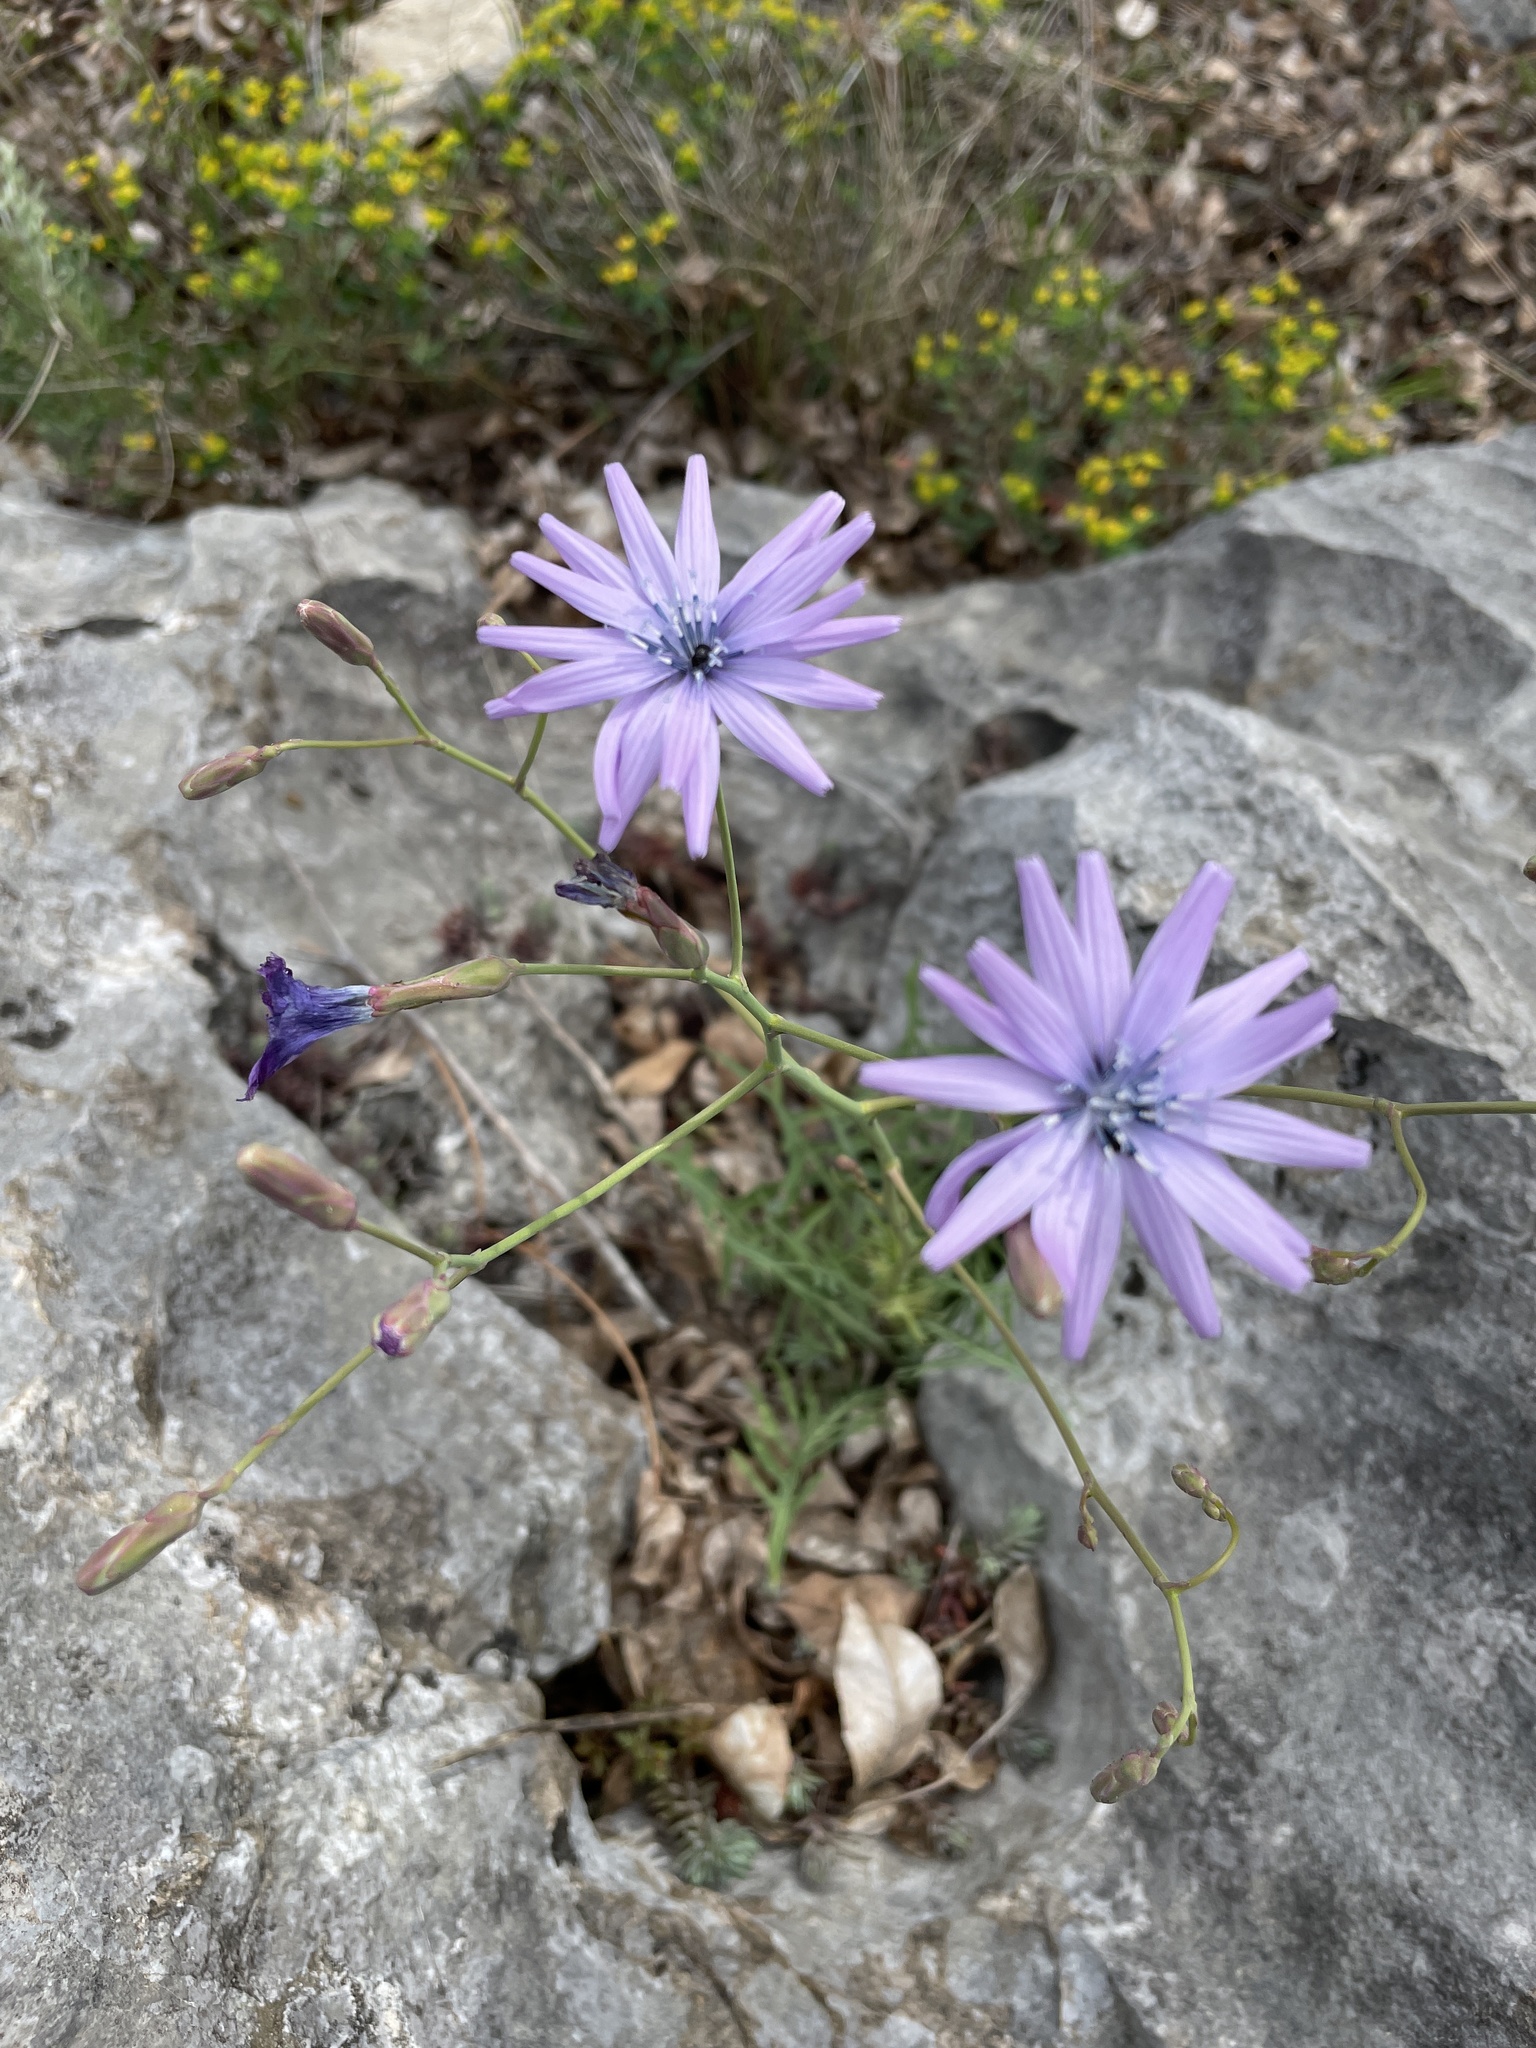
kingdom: Plantae
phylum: Tracheophyta
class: Magnoliopsida
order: Asterales
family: Asteraceae
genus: Lactuca
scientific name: Lactuca perennis
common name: Mountain lettuce
